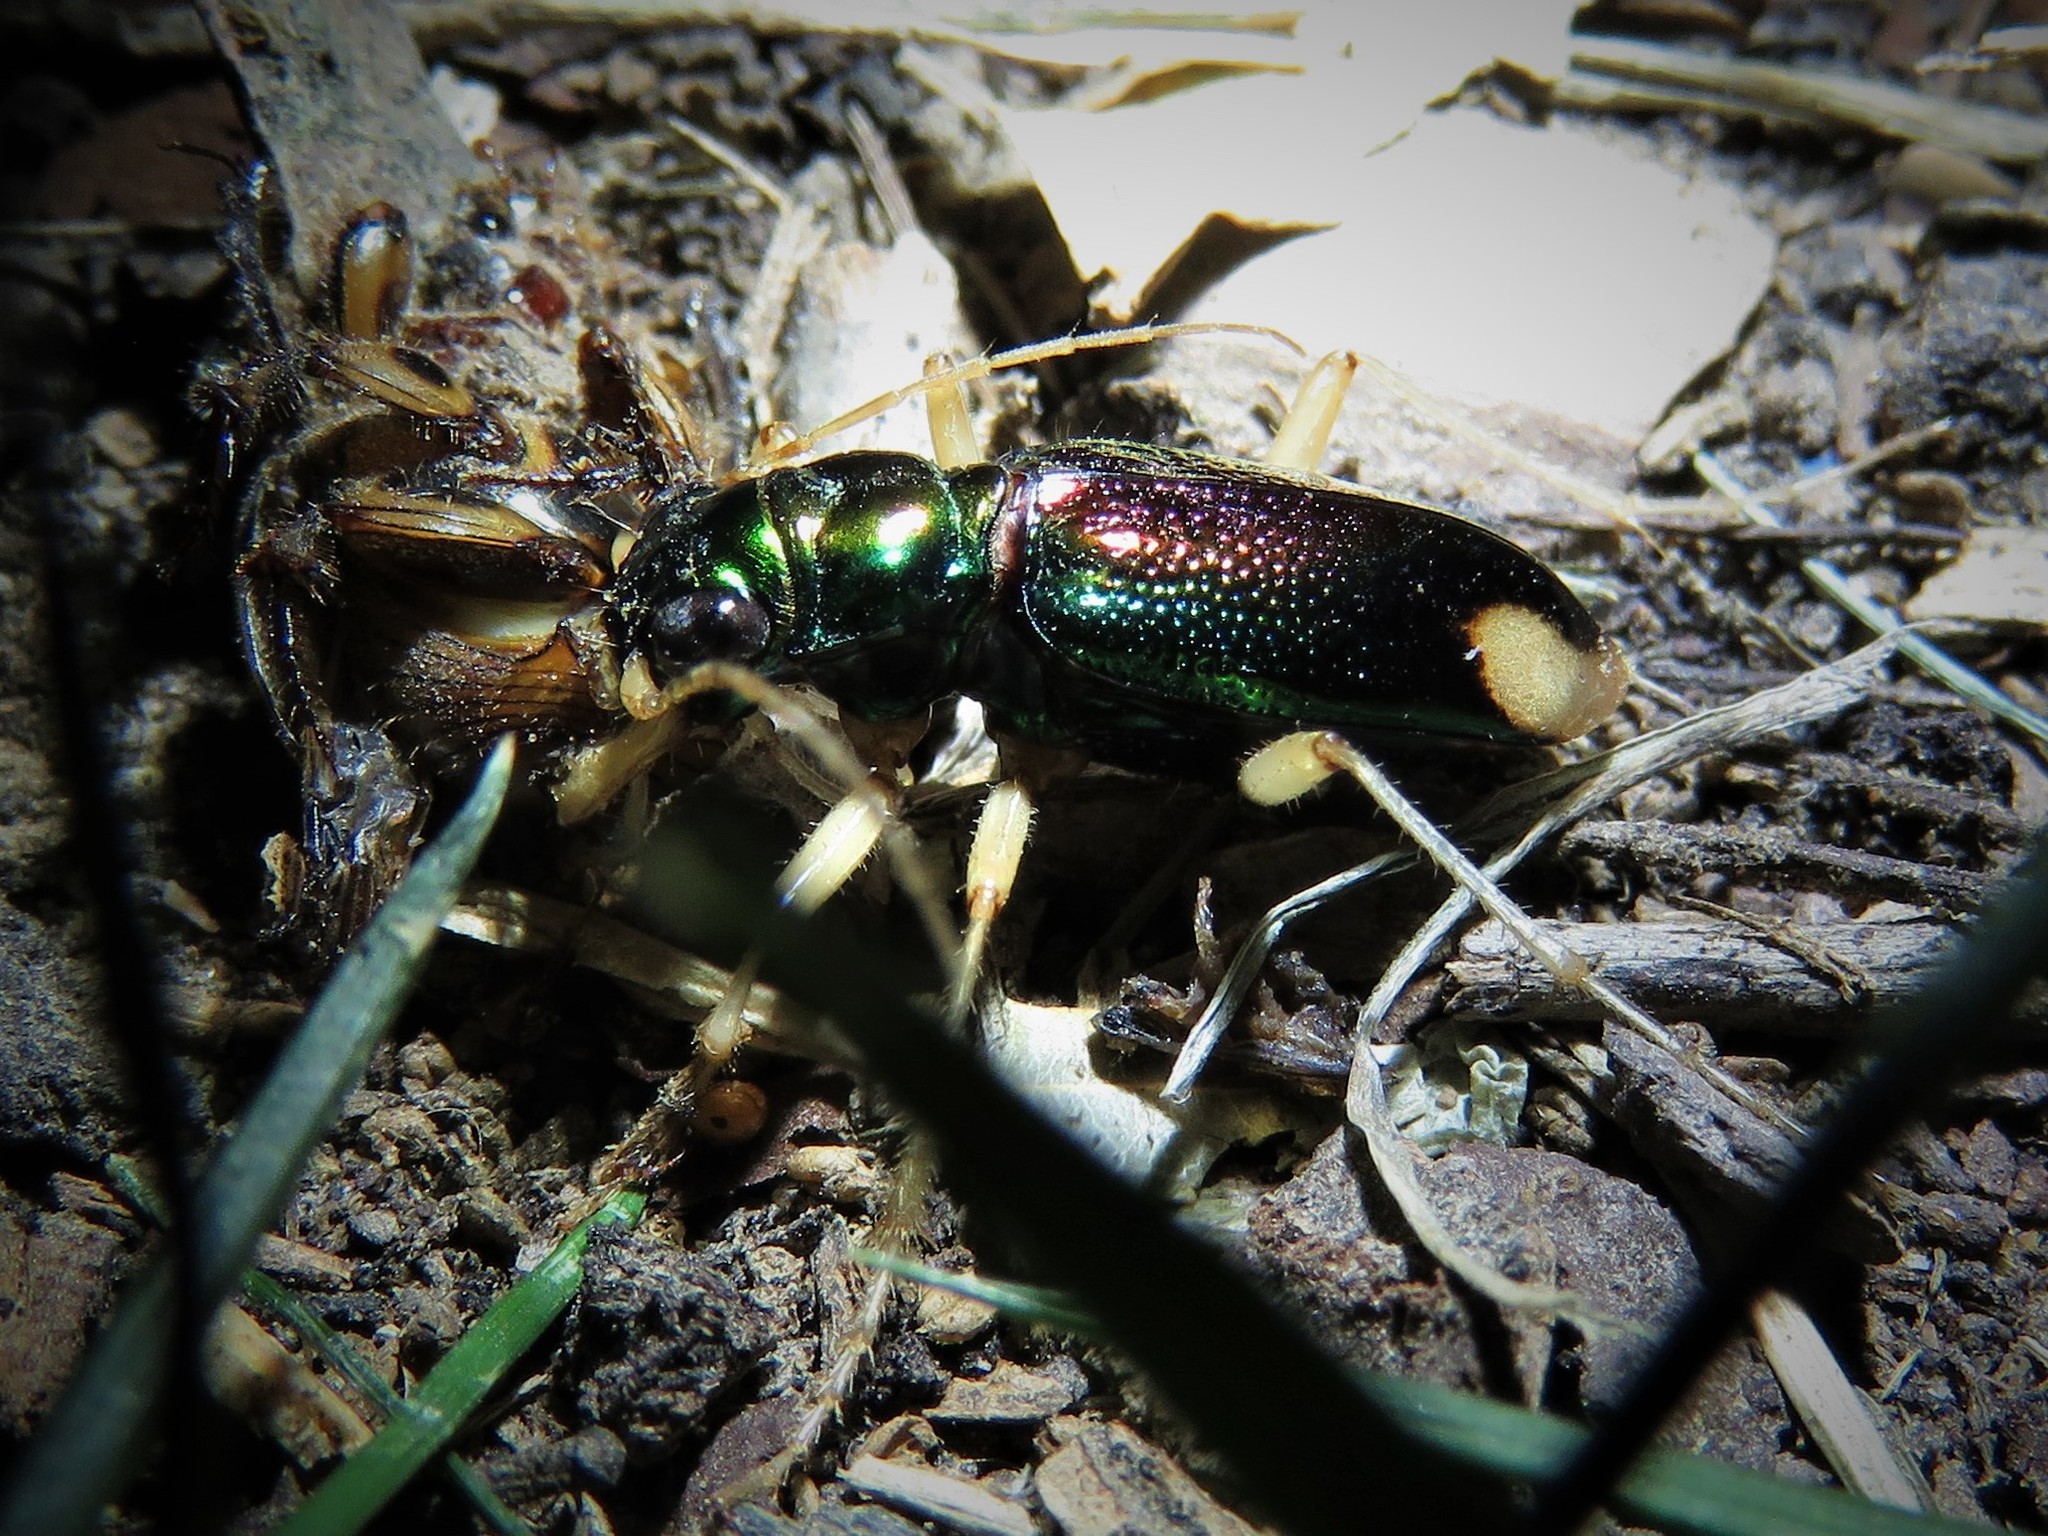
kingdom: Animalia
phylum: Arthropoda
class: Insecta
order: Coleoptera
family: Carabidae
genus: Tetracha
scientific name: Tetracha carolina
